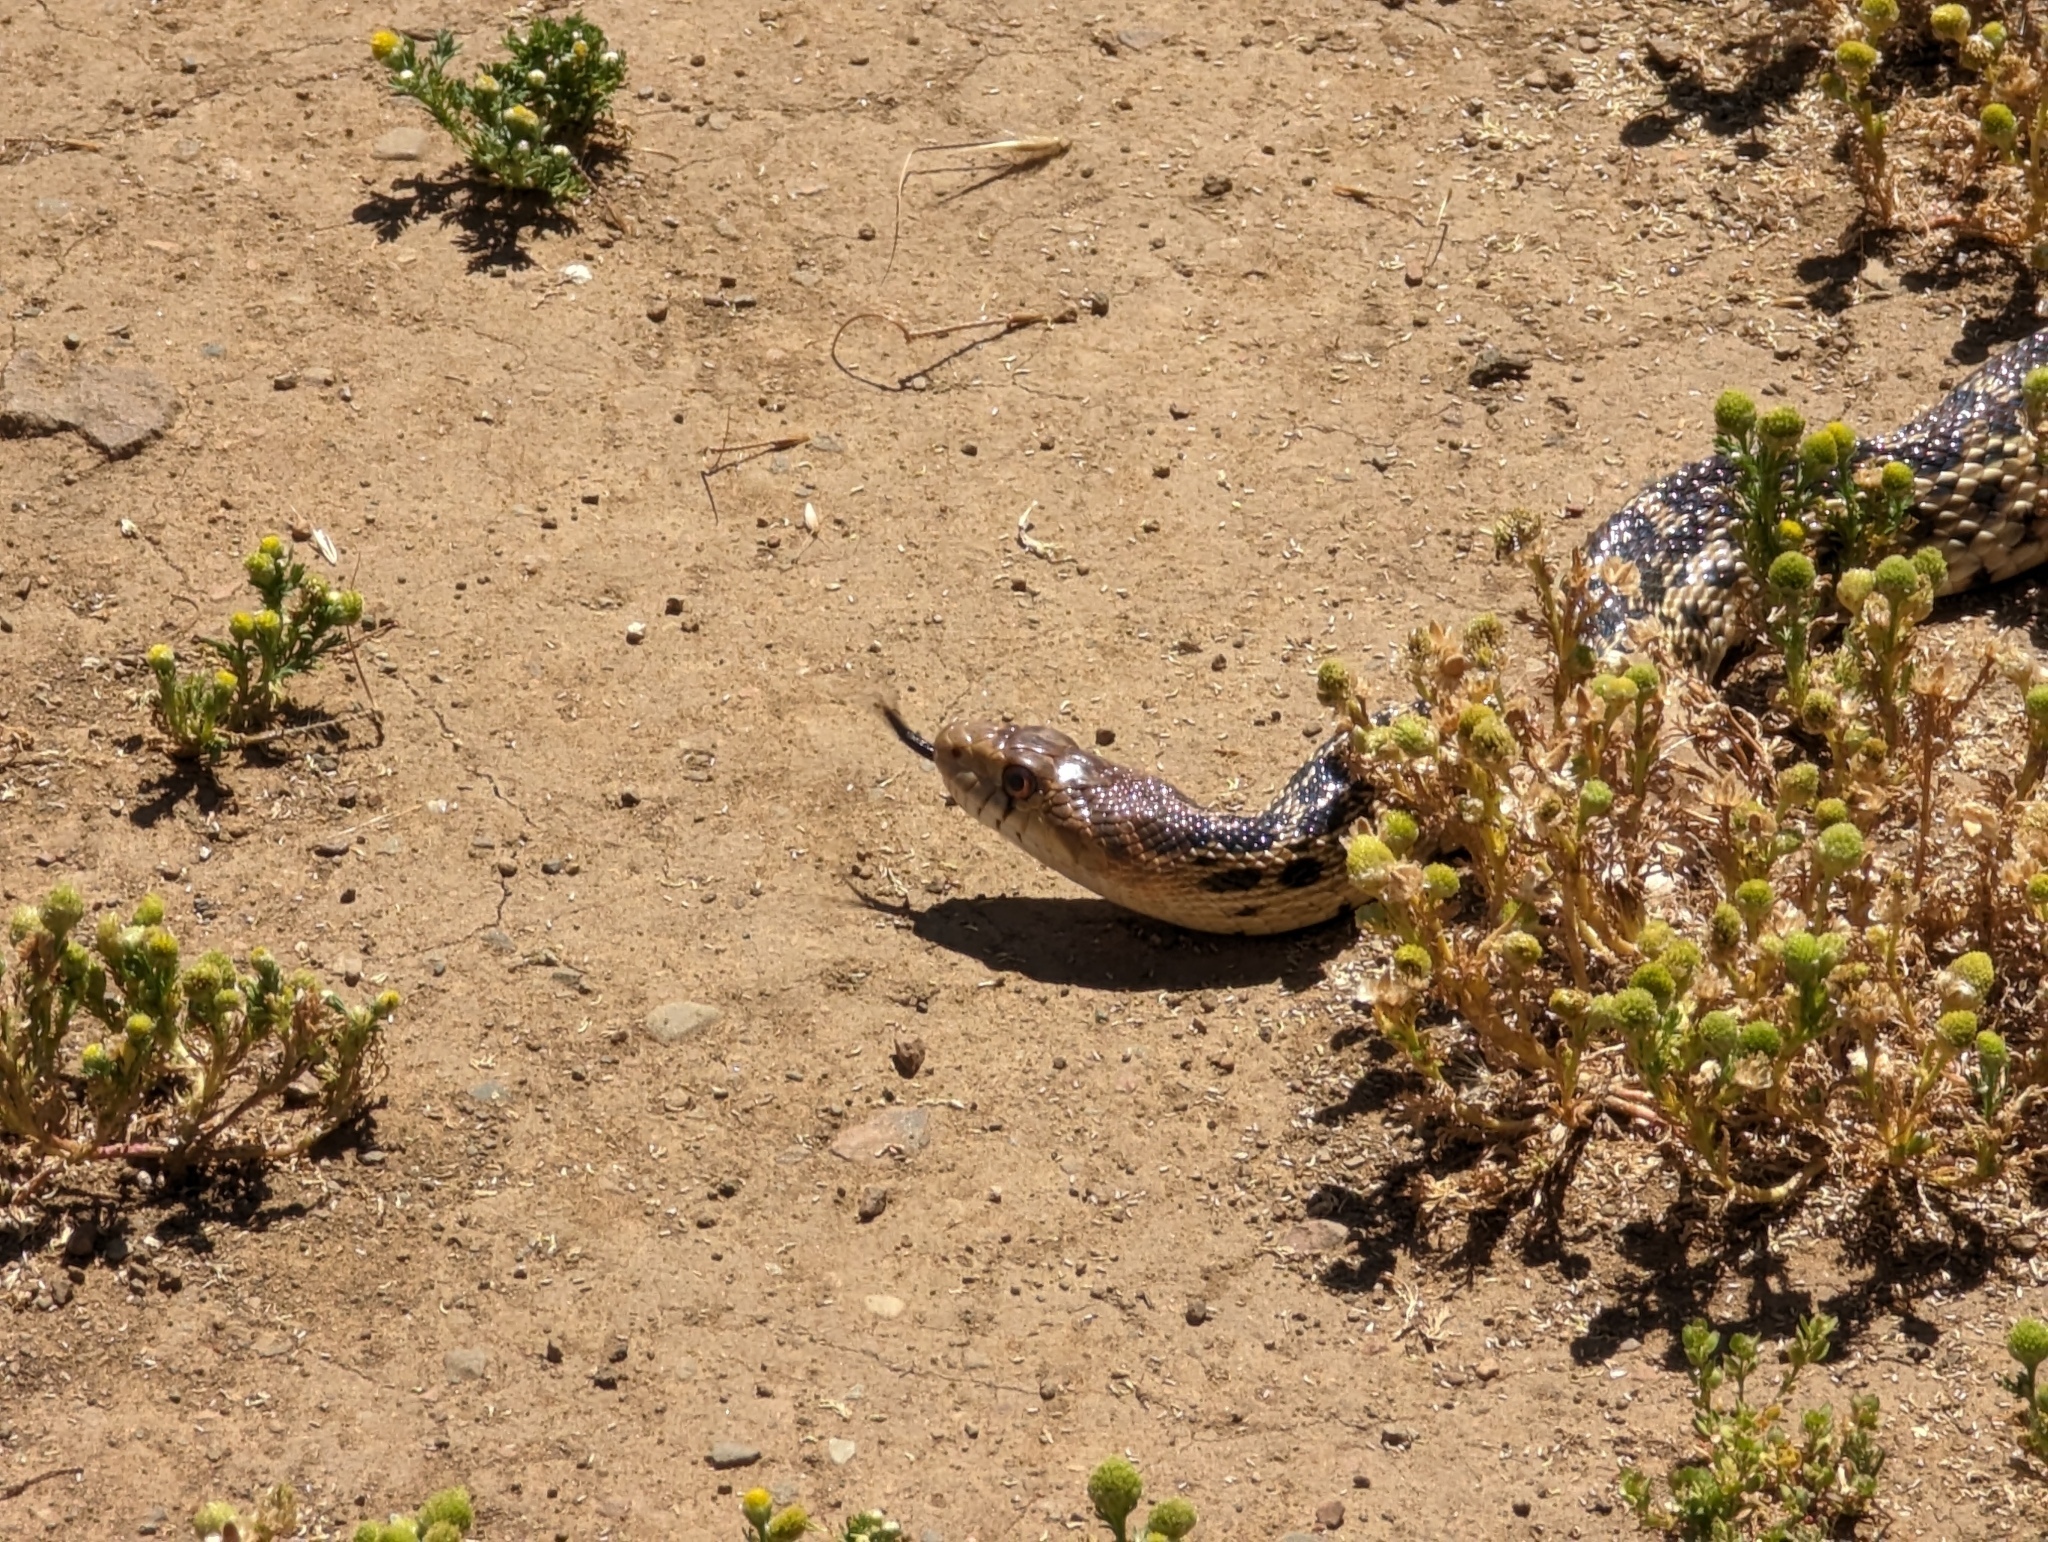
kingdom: Animalia
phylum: Chordata
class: Squamata
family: Colubridae
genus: Pituophis
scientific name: Pituophis catenifer
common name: Gopher snake
